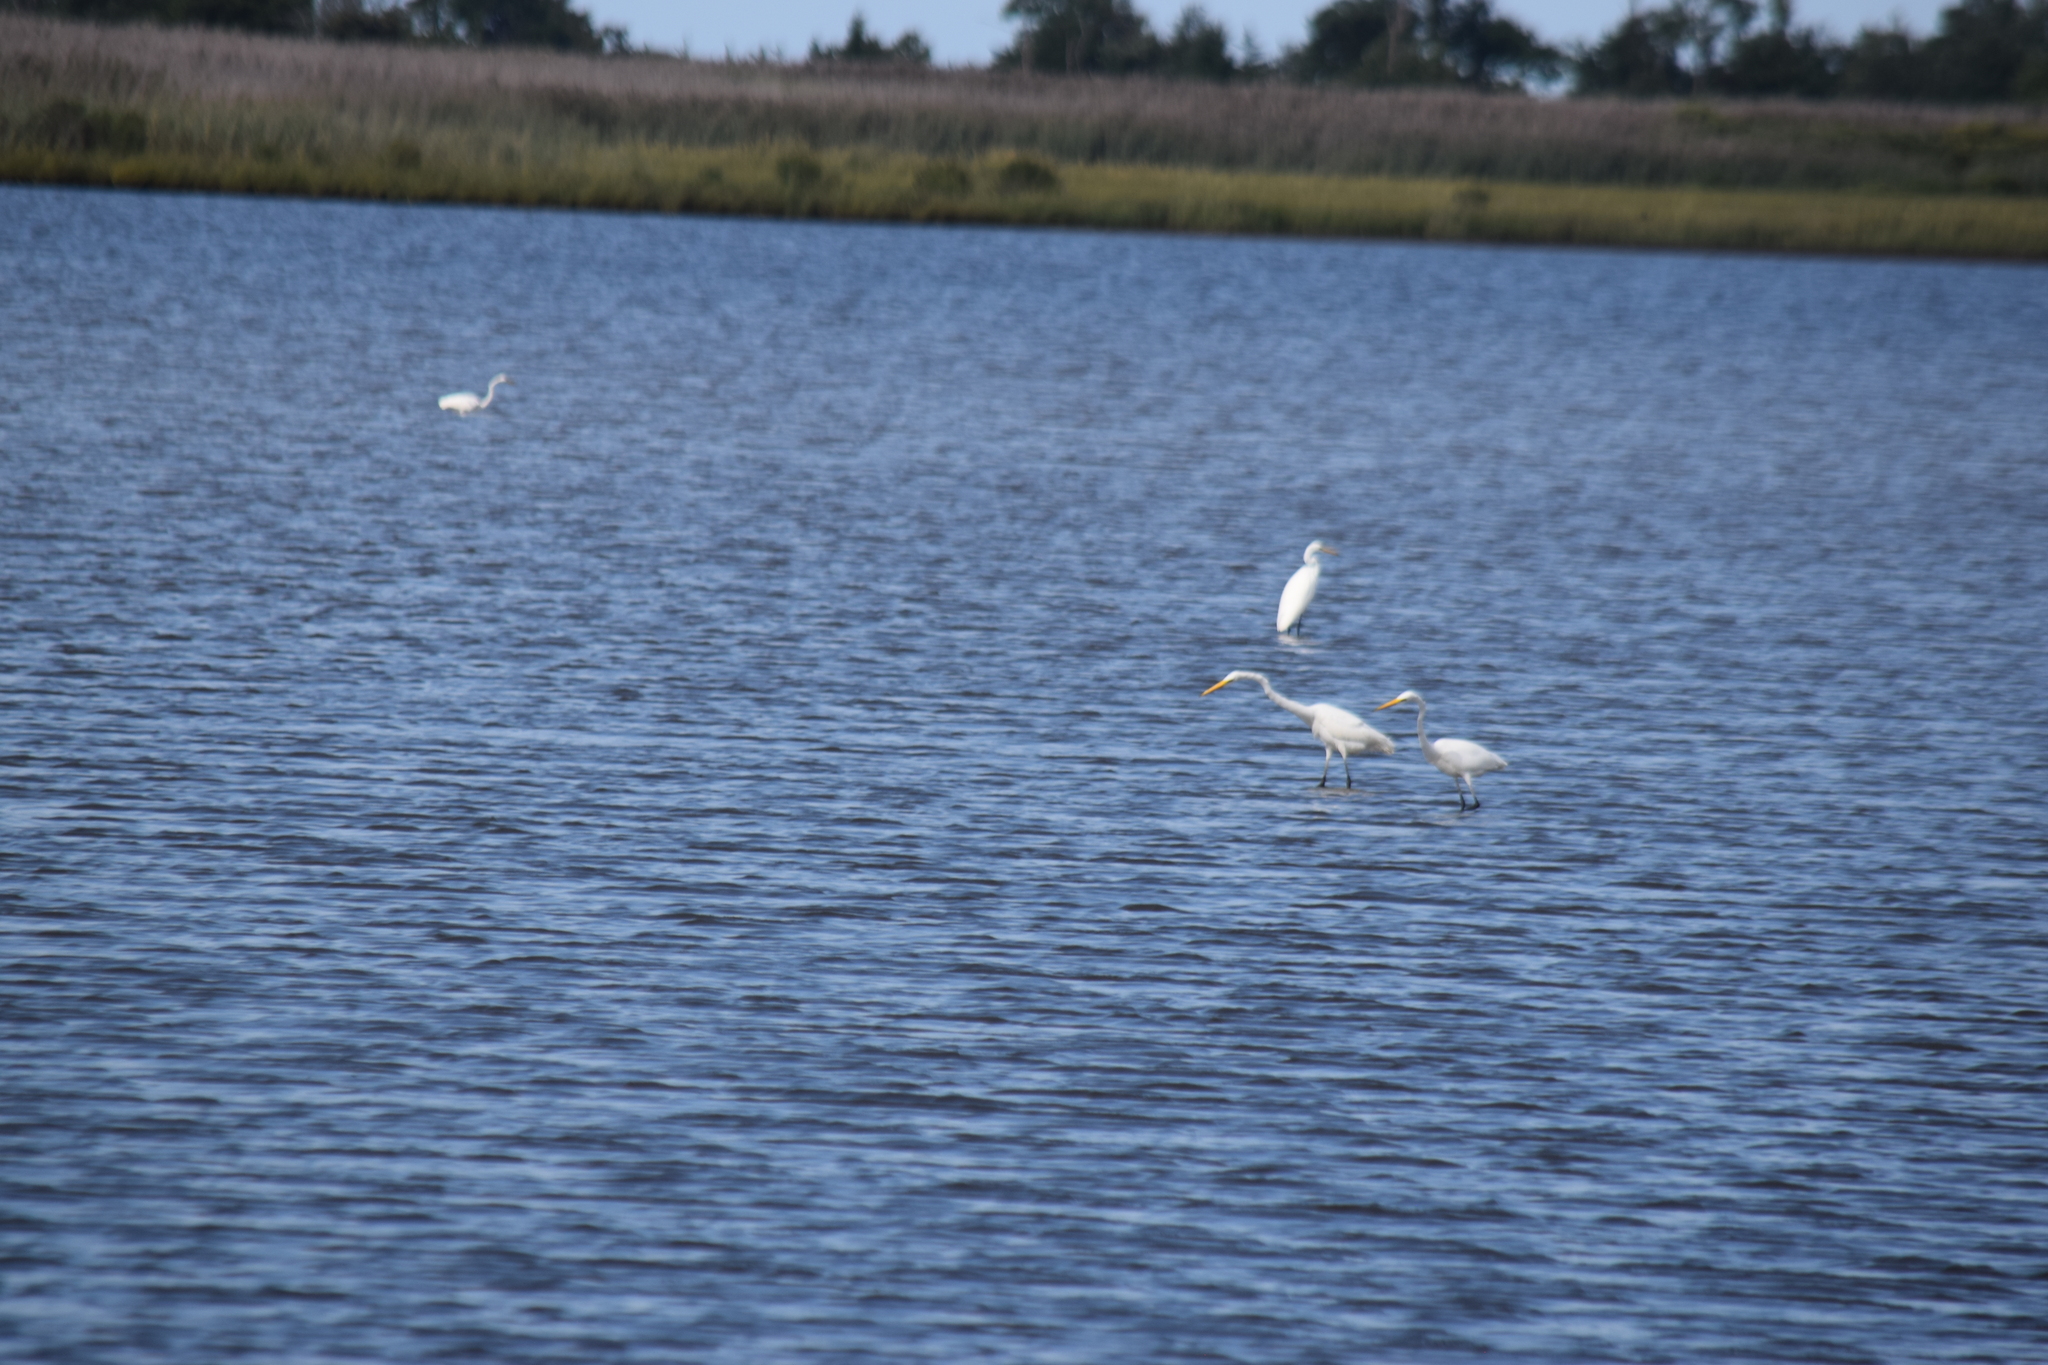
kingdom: Animalia
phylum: Chordata
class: Aves
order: Pelecaniformes
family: Ardeidae
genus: Ardea
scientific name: Ardea alba
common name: Great egret
